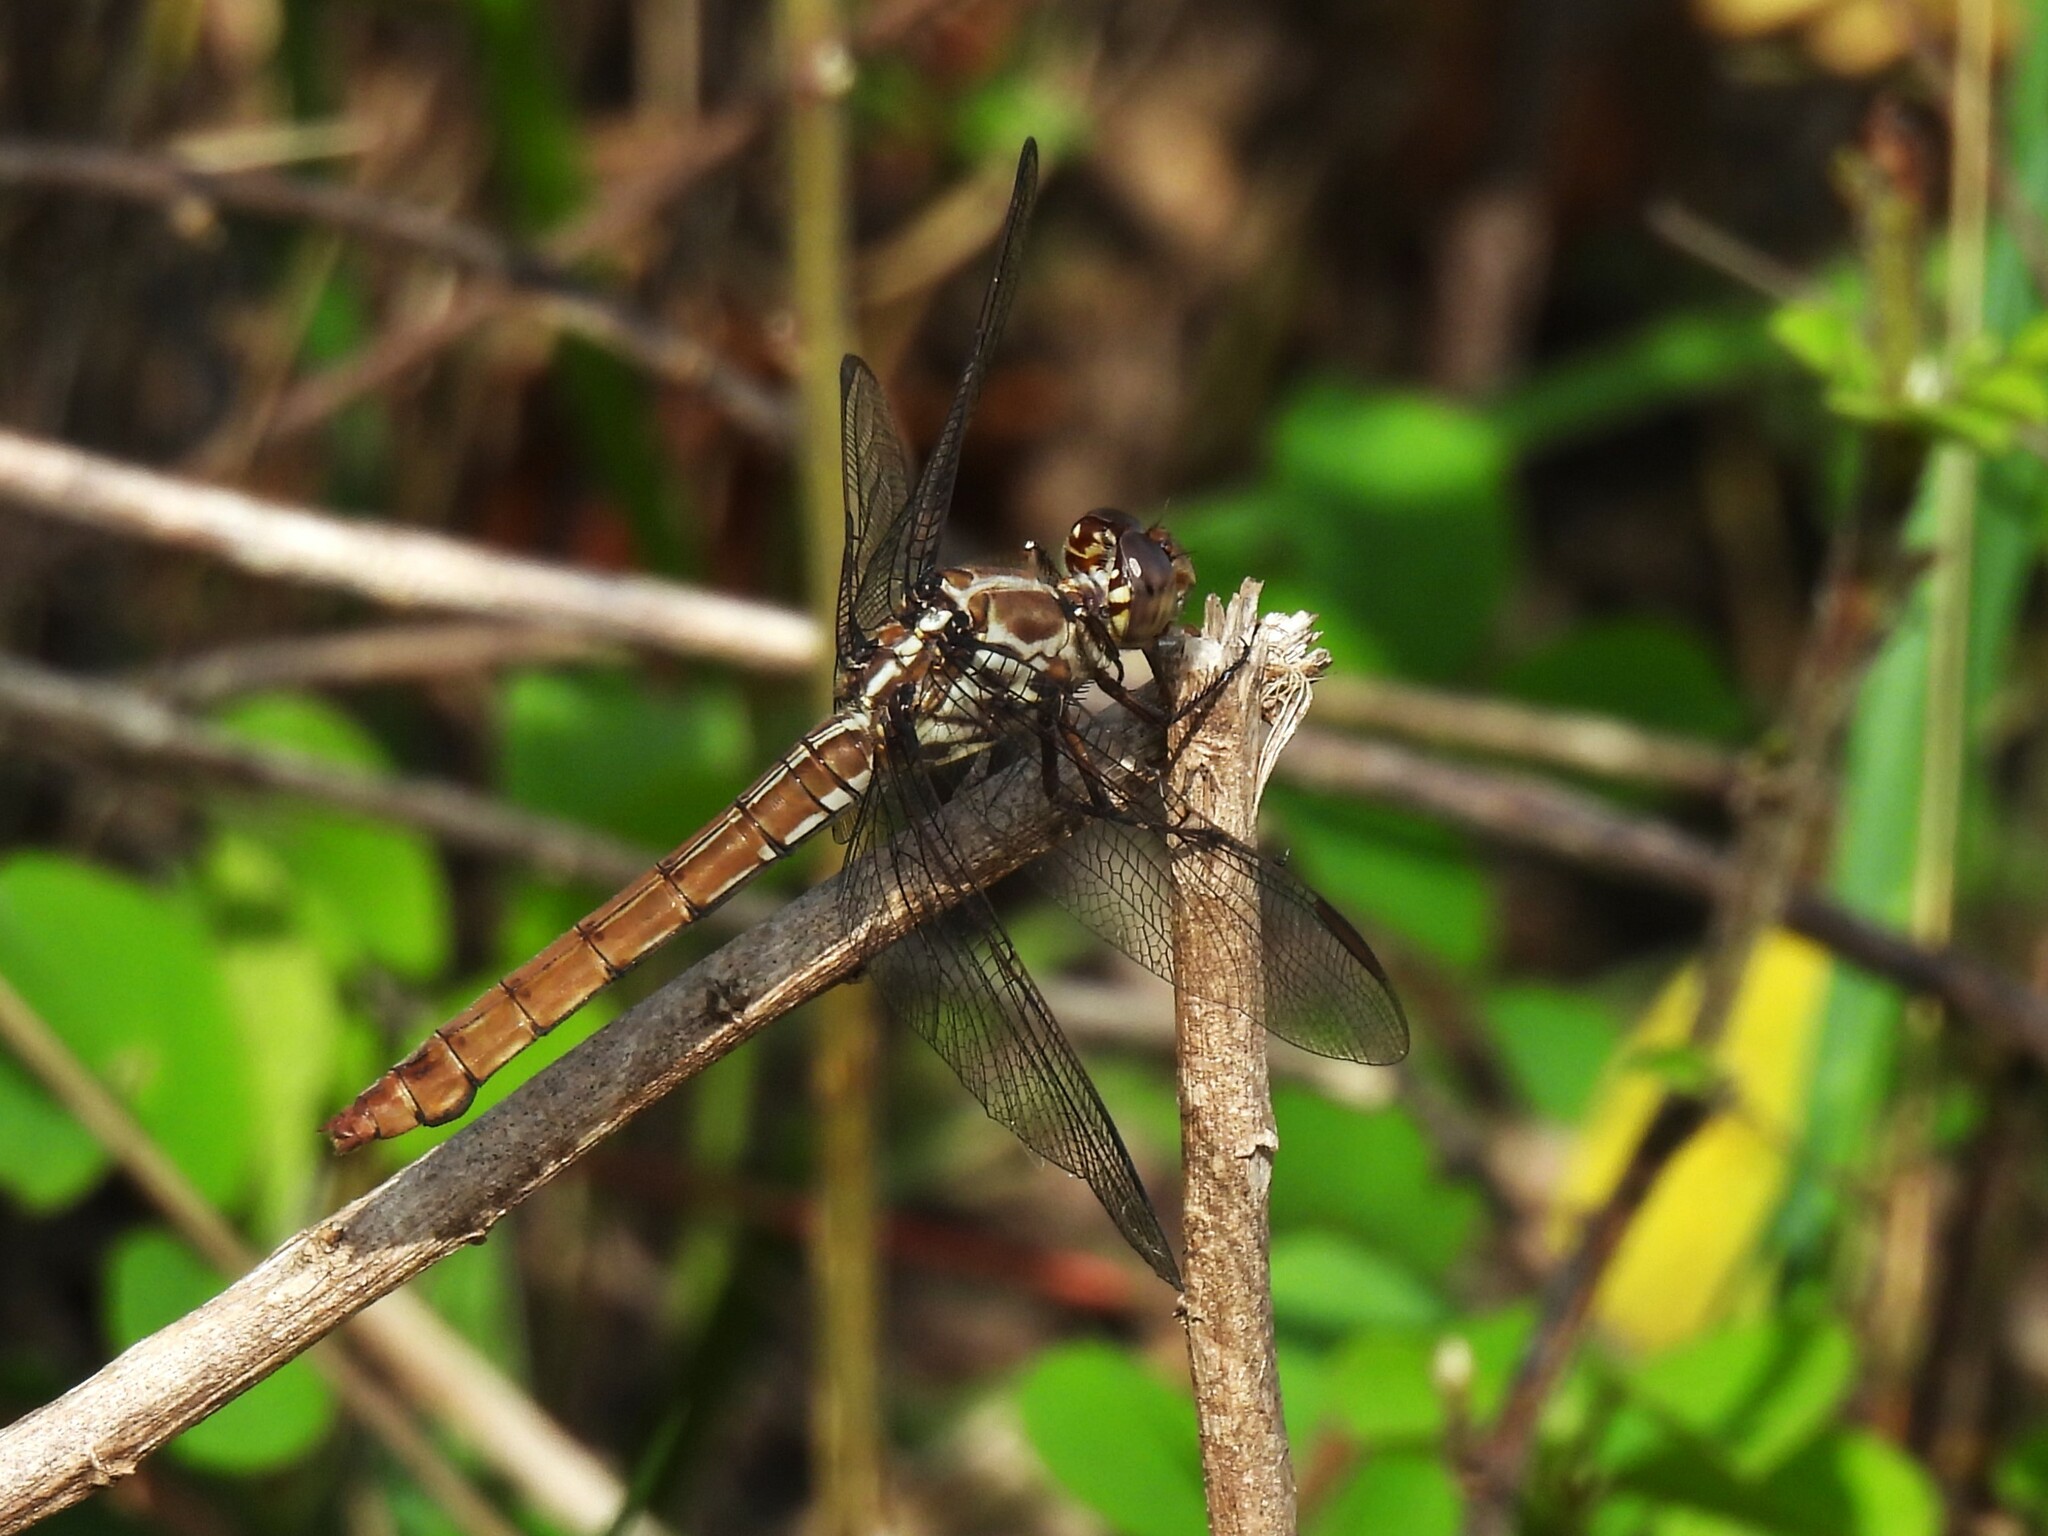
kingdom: Animalia
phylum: Arthropoda
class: Insecta
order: Odonata
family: Libellulidae
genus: Orthemis
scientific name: Orthemis ferruginea
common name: Roseate skimmer
